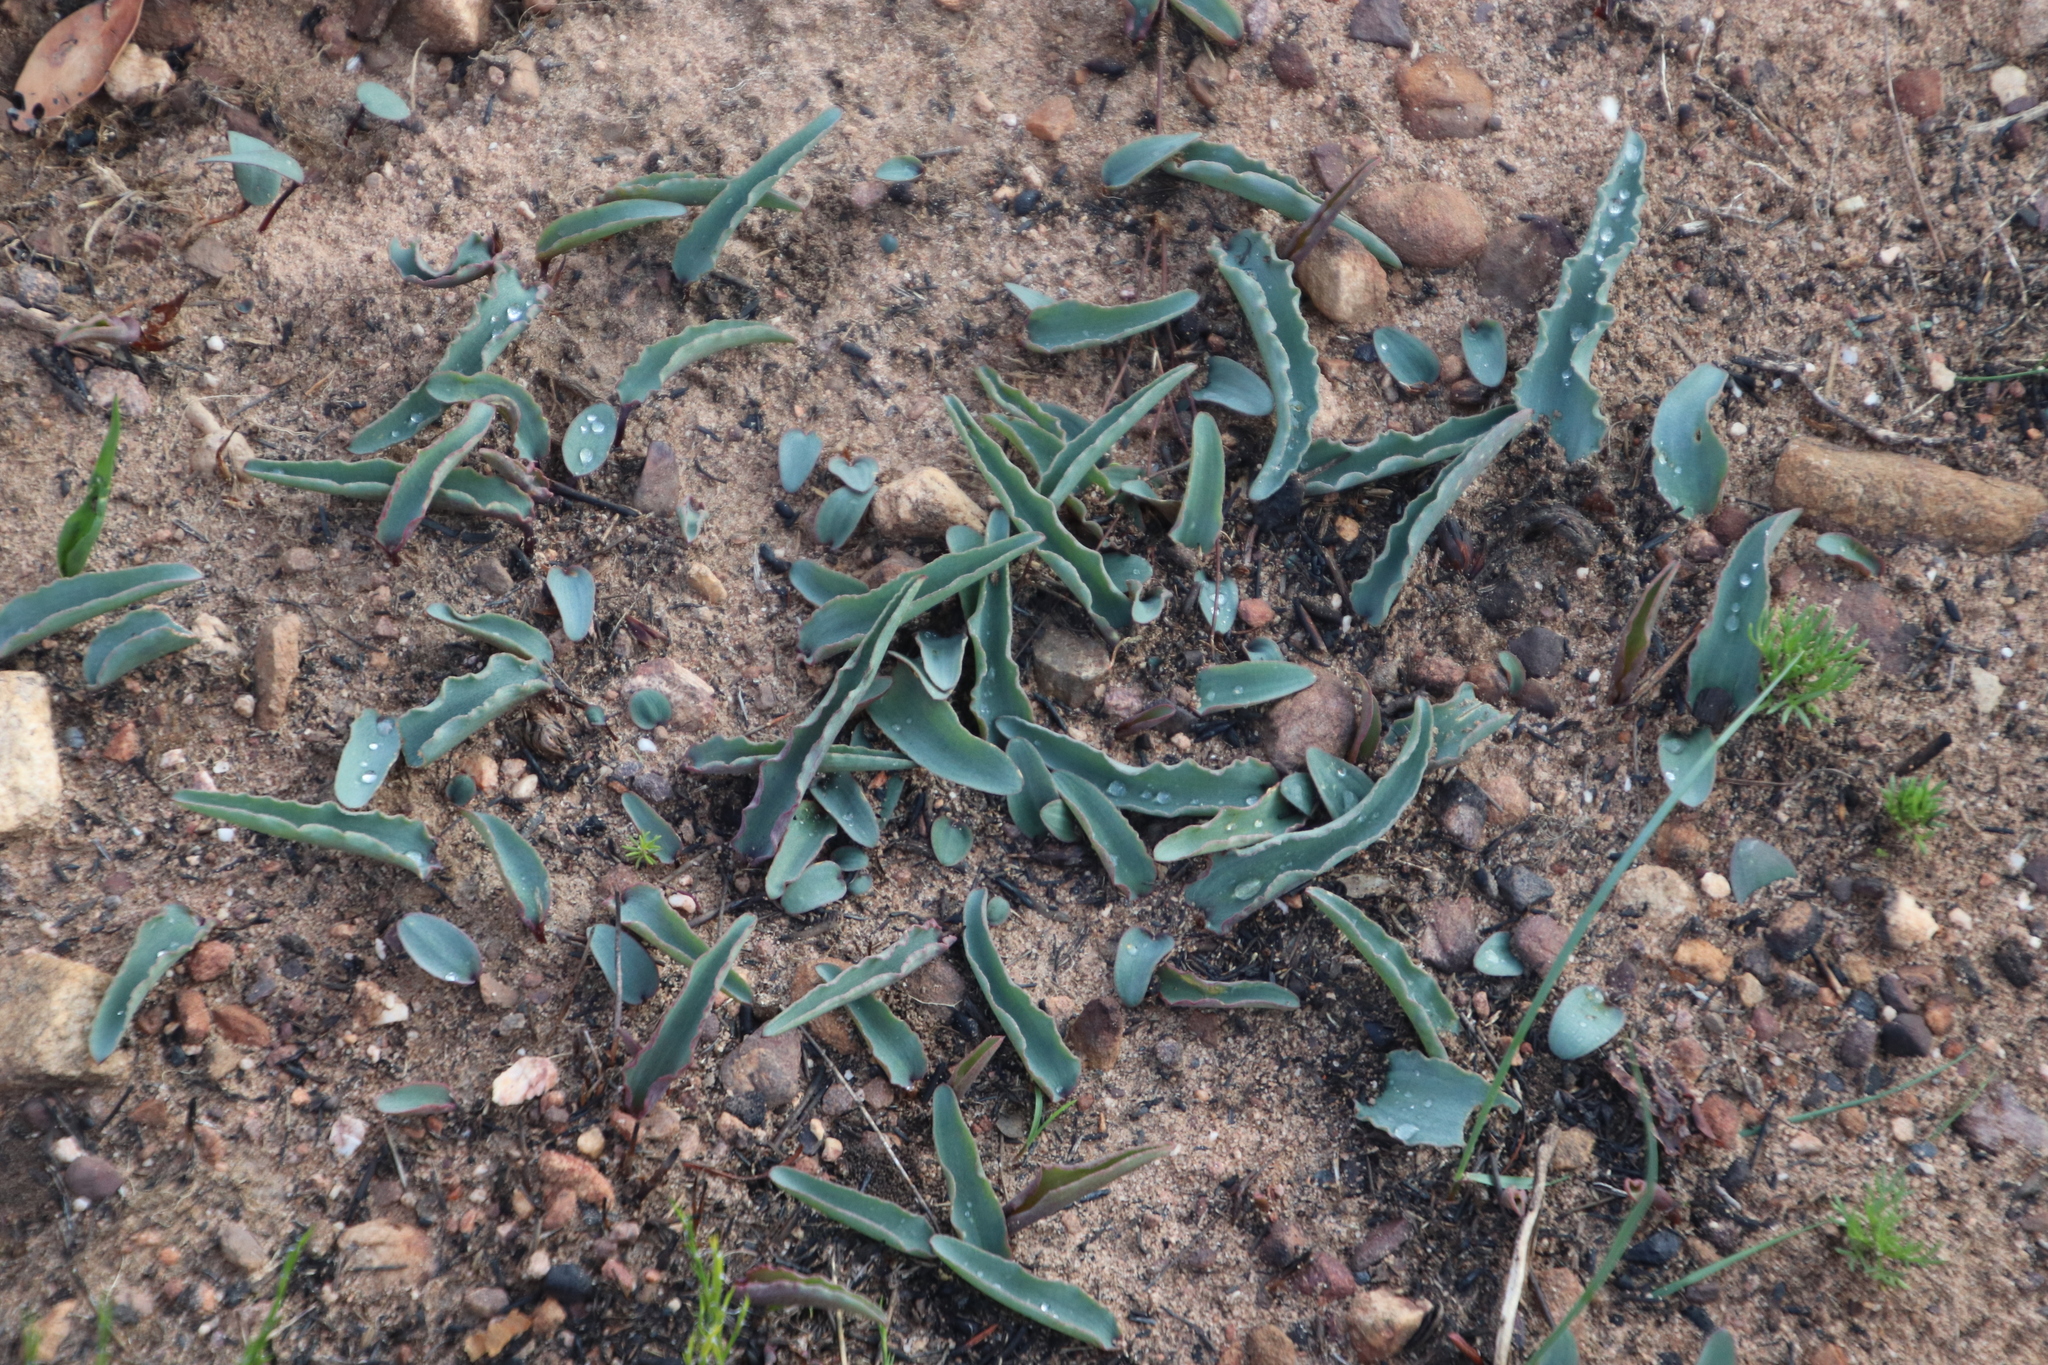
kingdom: Plantae
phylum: Tracheophyta
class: Magnoliopsida
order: Malpighiales
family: Euphorbiaceae
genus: Euphorbia
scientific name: Euphorbia tuberosa
